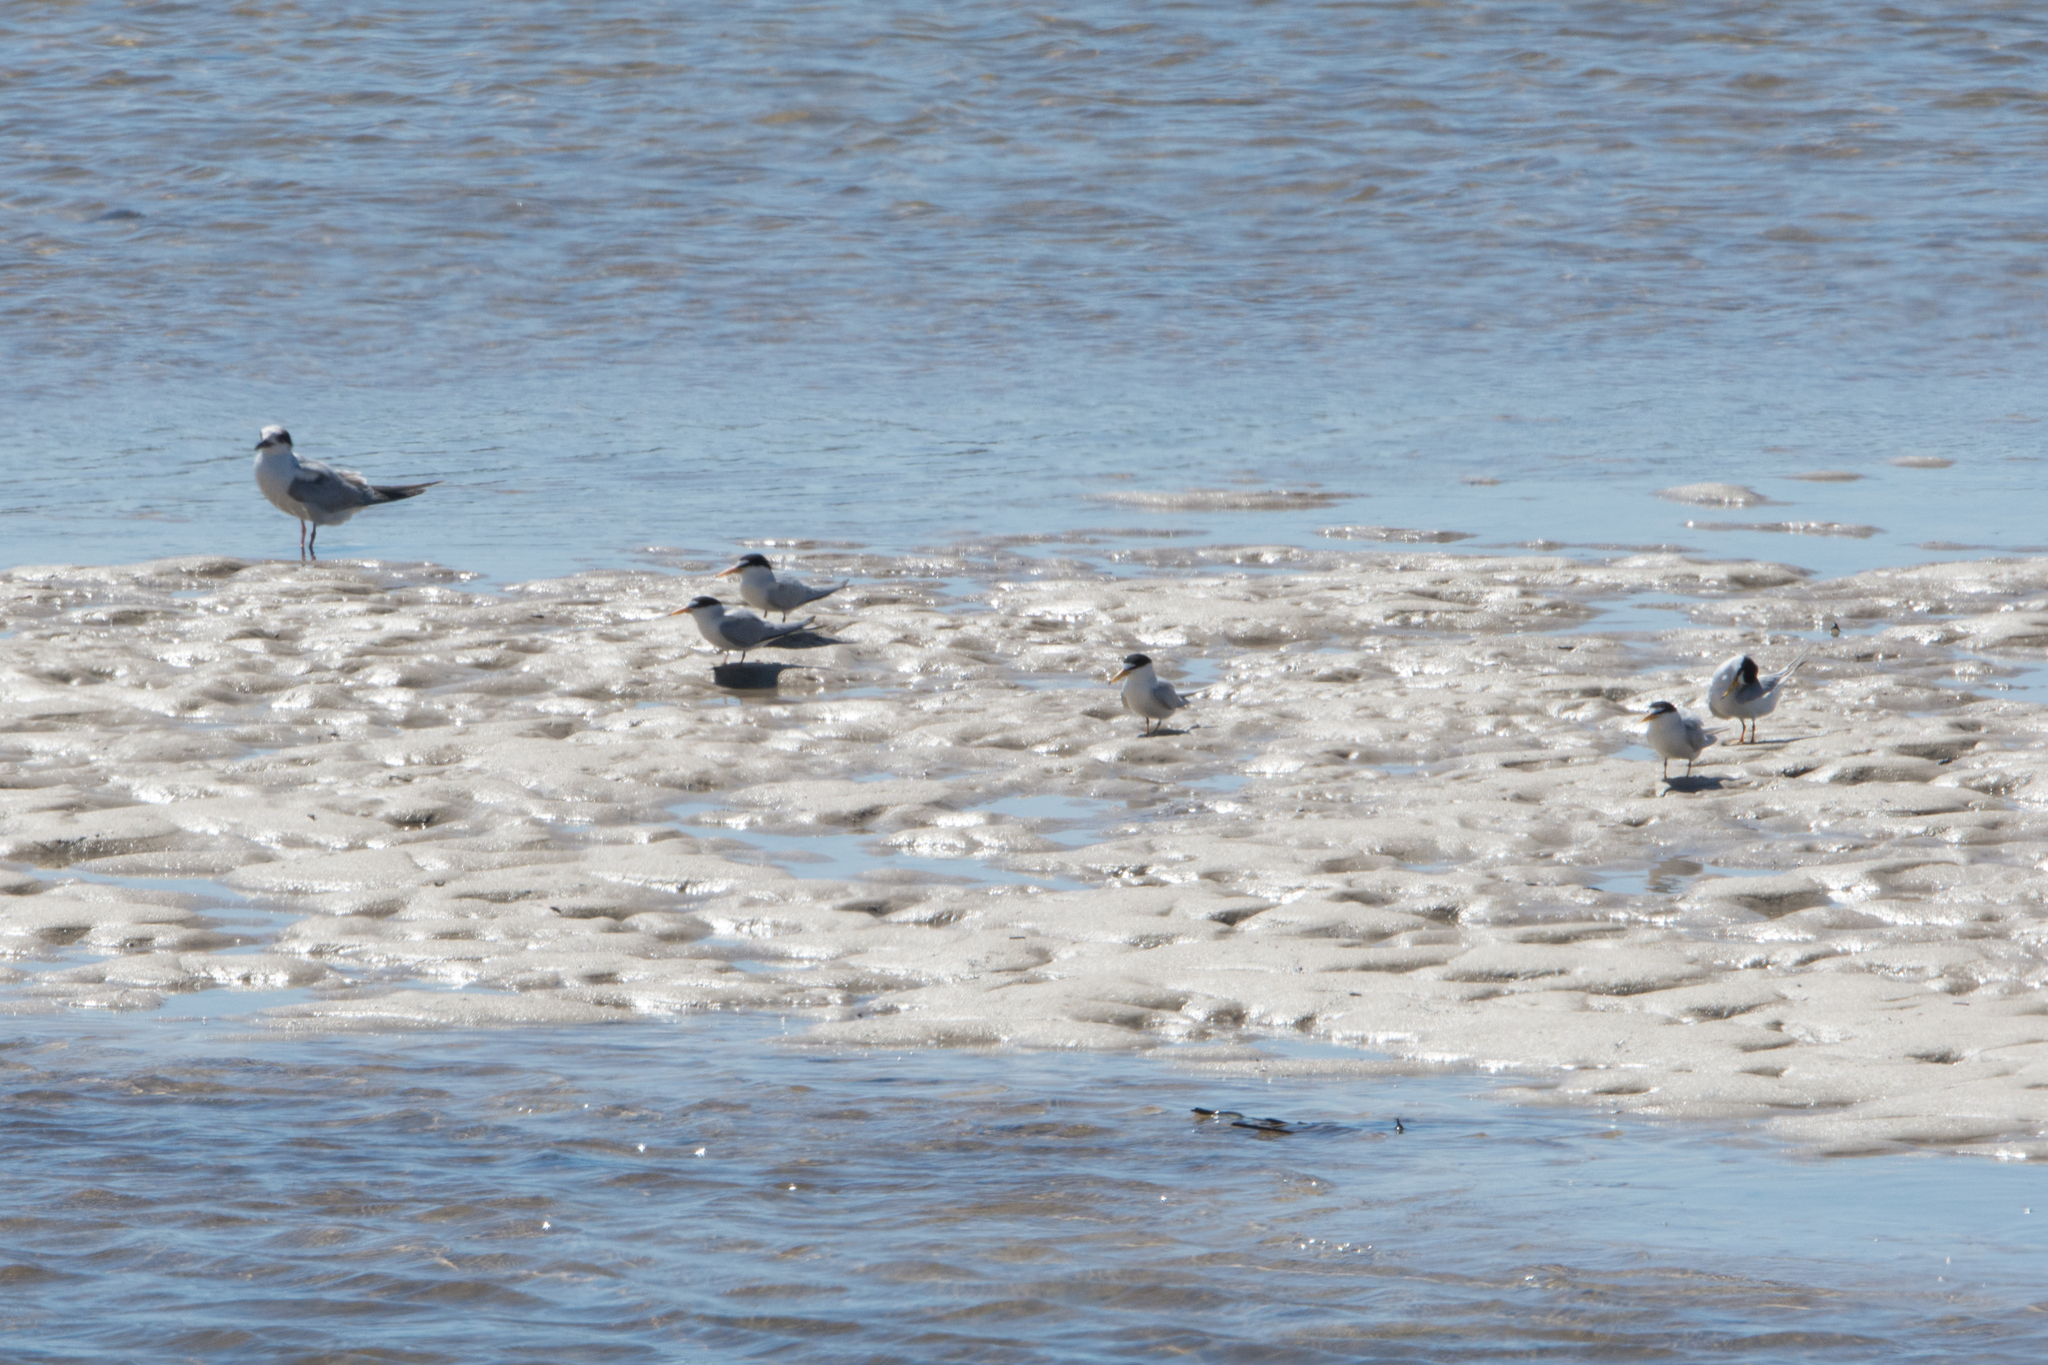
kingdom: Animalia
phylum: Chordata
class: Aves
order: Charadriiformes
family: Laridae
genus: Sternula
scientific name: Sternula antillarum
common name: Least tern
